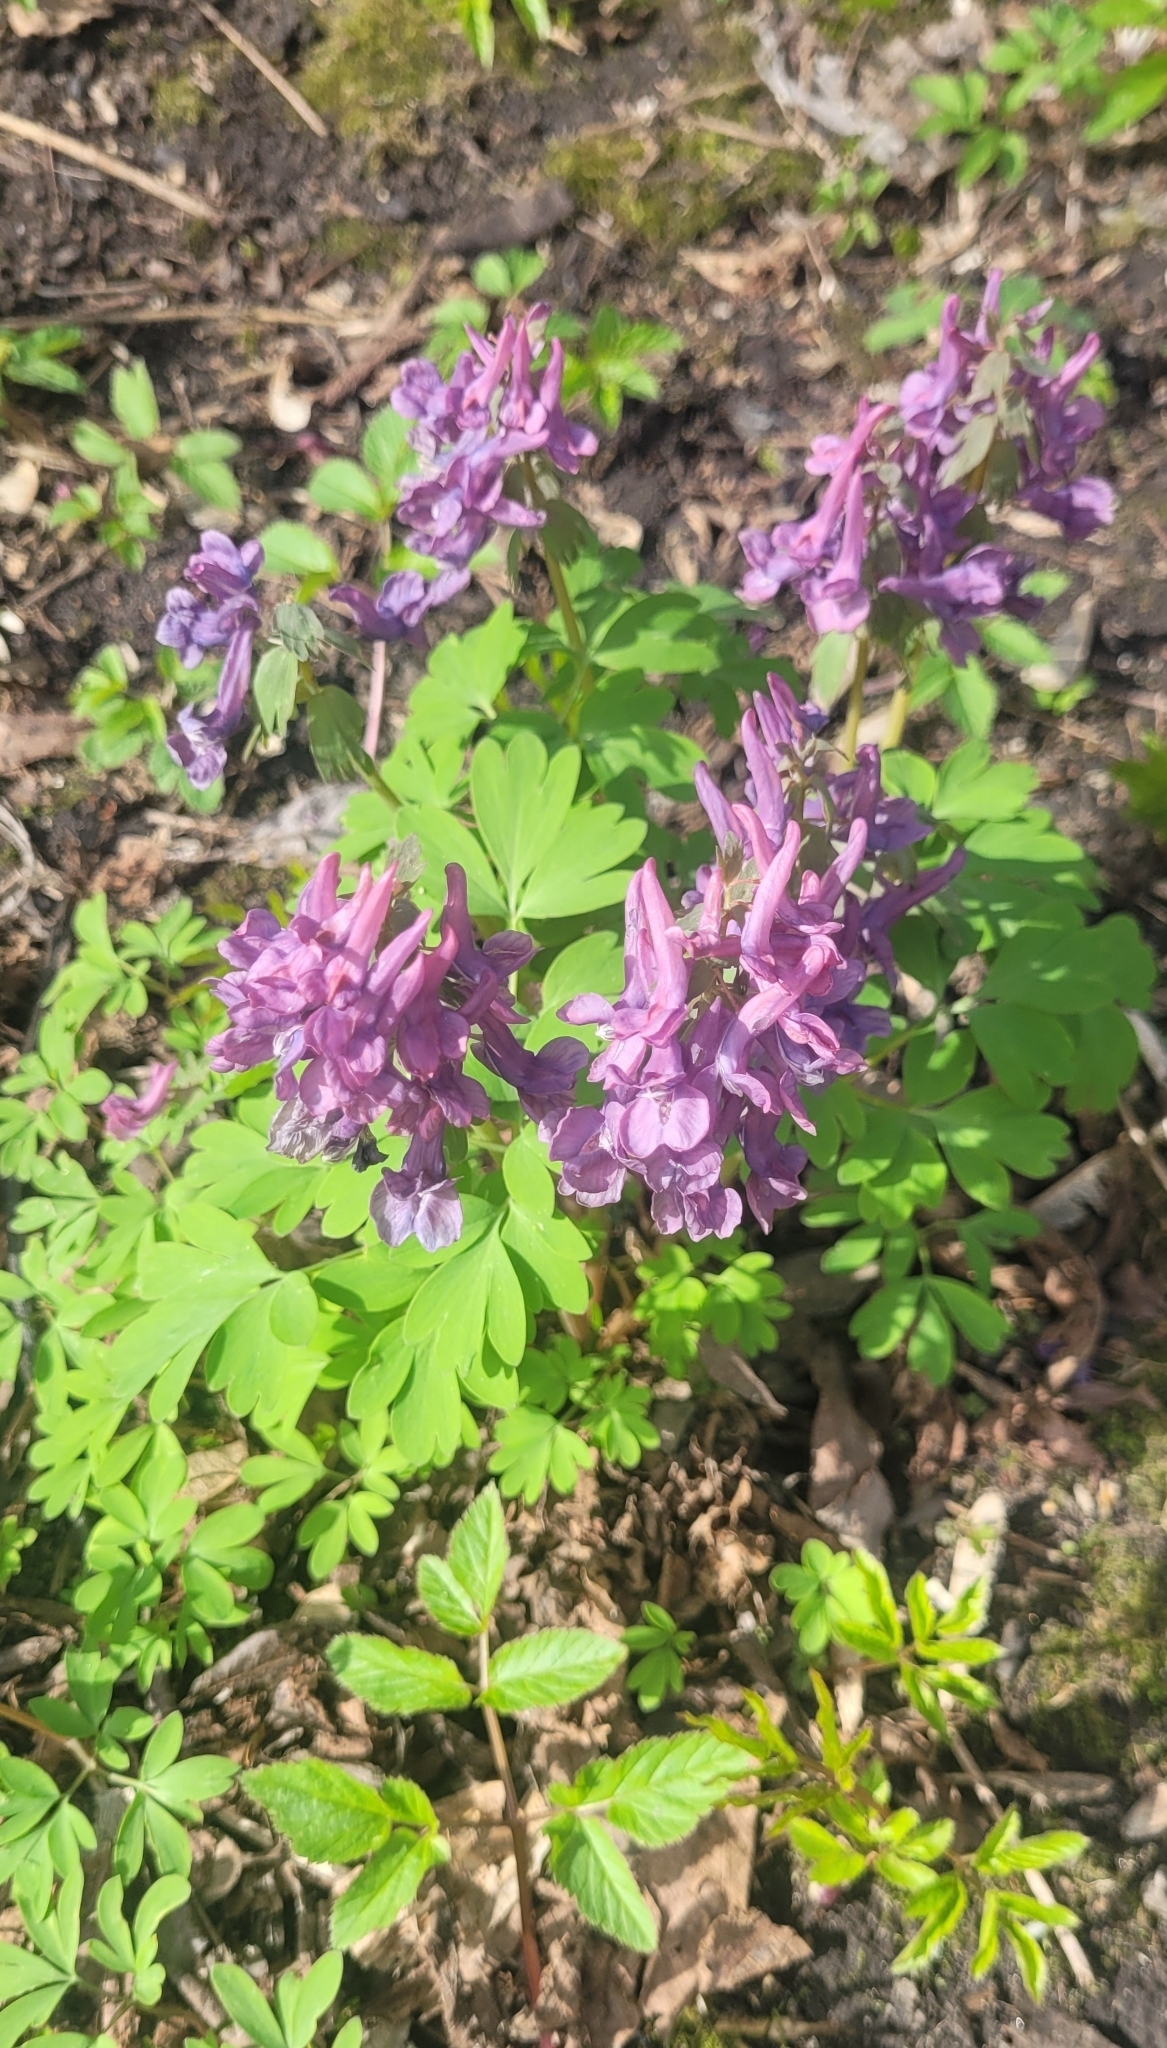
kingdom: Plantae
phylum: Tracheophyta
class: Magnoliopsida
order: Ranunculales
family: Papaveraceae
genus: Corydalis
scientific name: Corydalis solida
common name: Bird-in-a-bush
